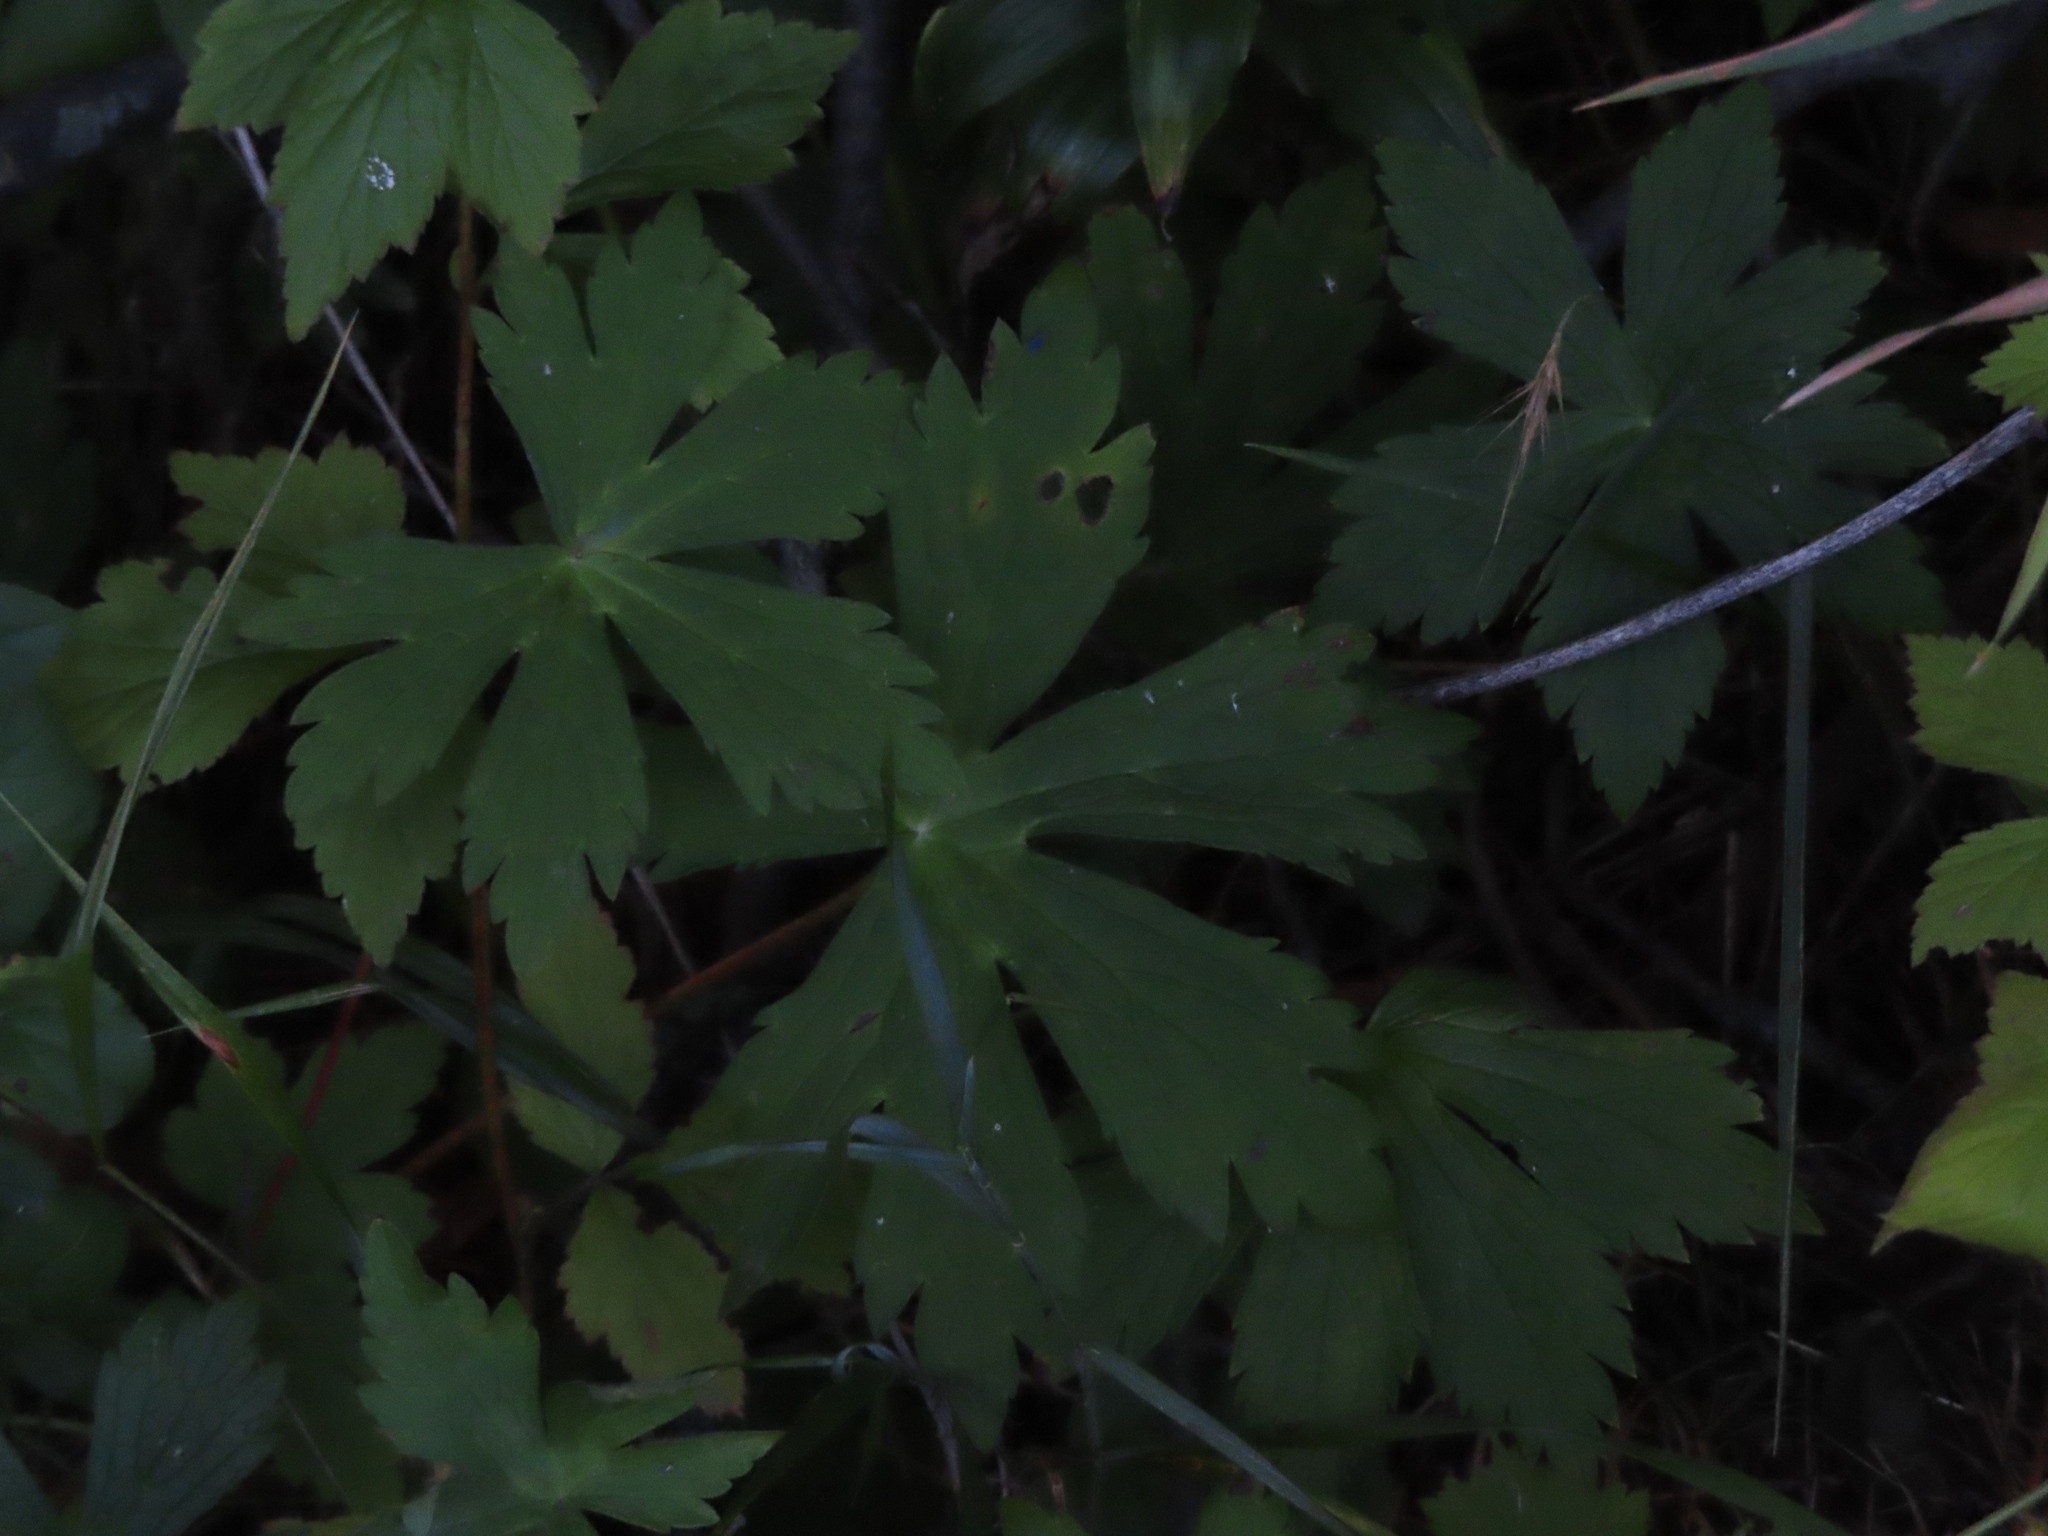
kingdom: Plantae
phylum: Tracheophyta
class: Magnoliopsida
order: Geraniales
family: Geraniaceae
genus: Geranium
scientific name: Geranium maculatum
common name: Spotted geranium
